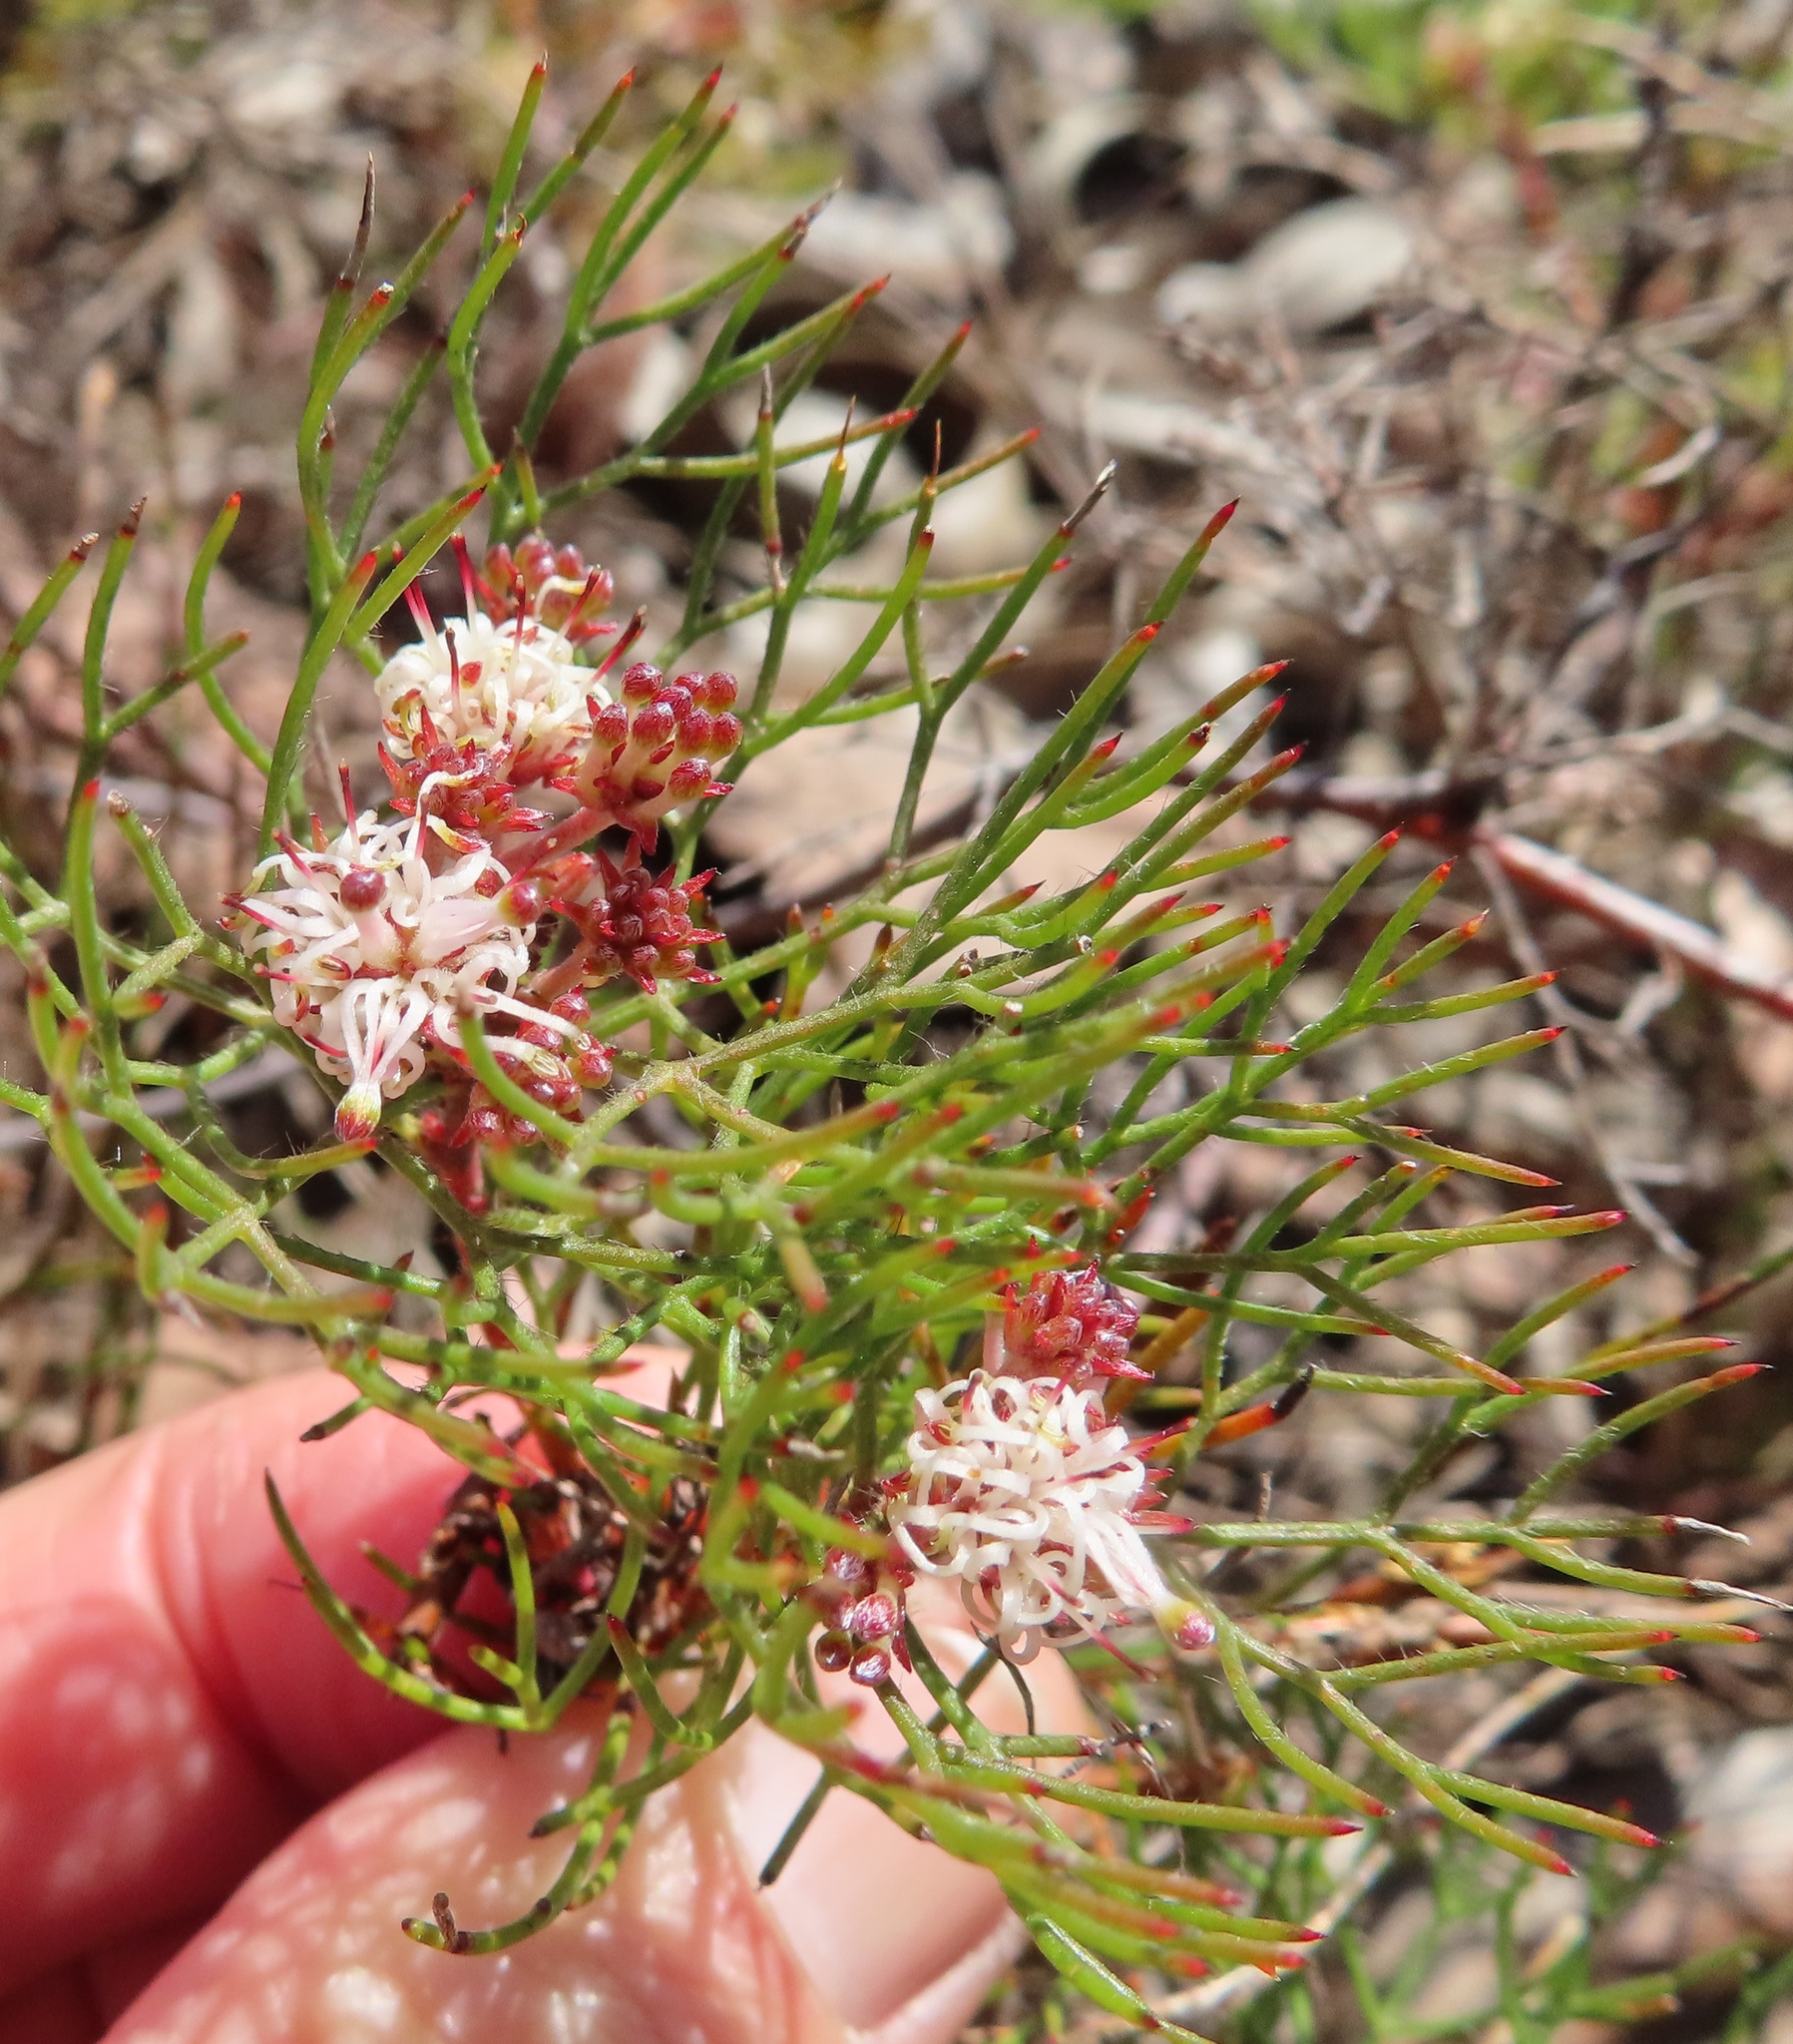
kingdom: Plantae
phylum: Tracheophyta
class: Magnoliopsida
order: Proteales
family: Proteaceae
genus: Serruria
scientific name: Serruria inconspicua
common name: Cryptic spiderhead
